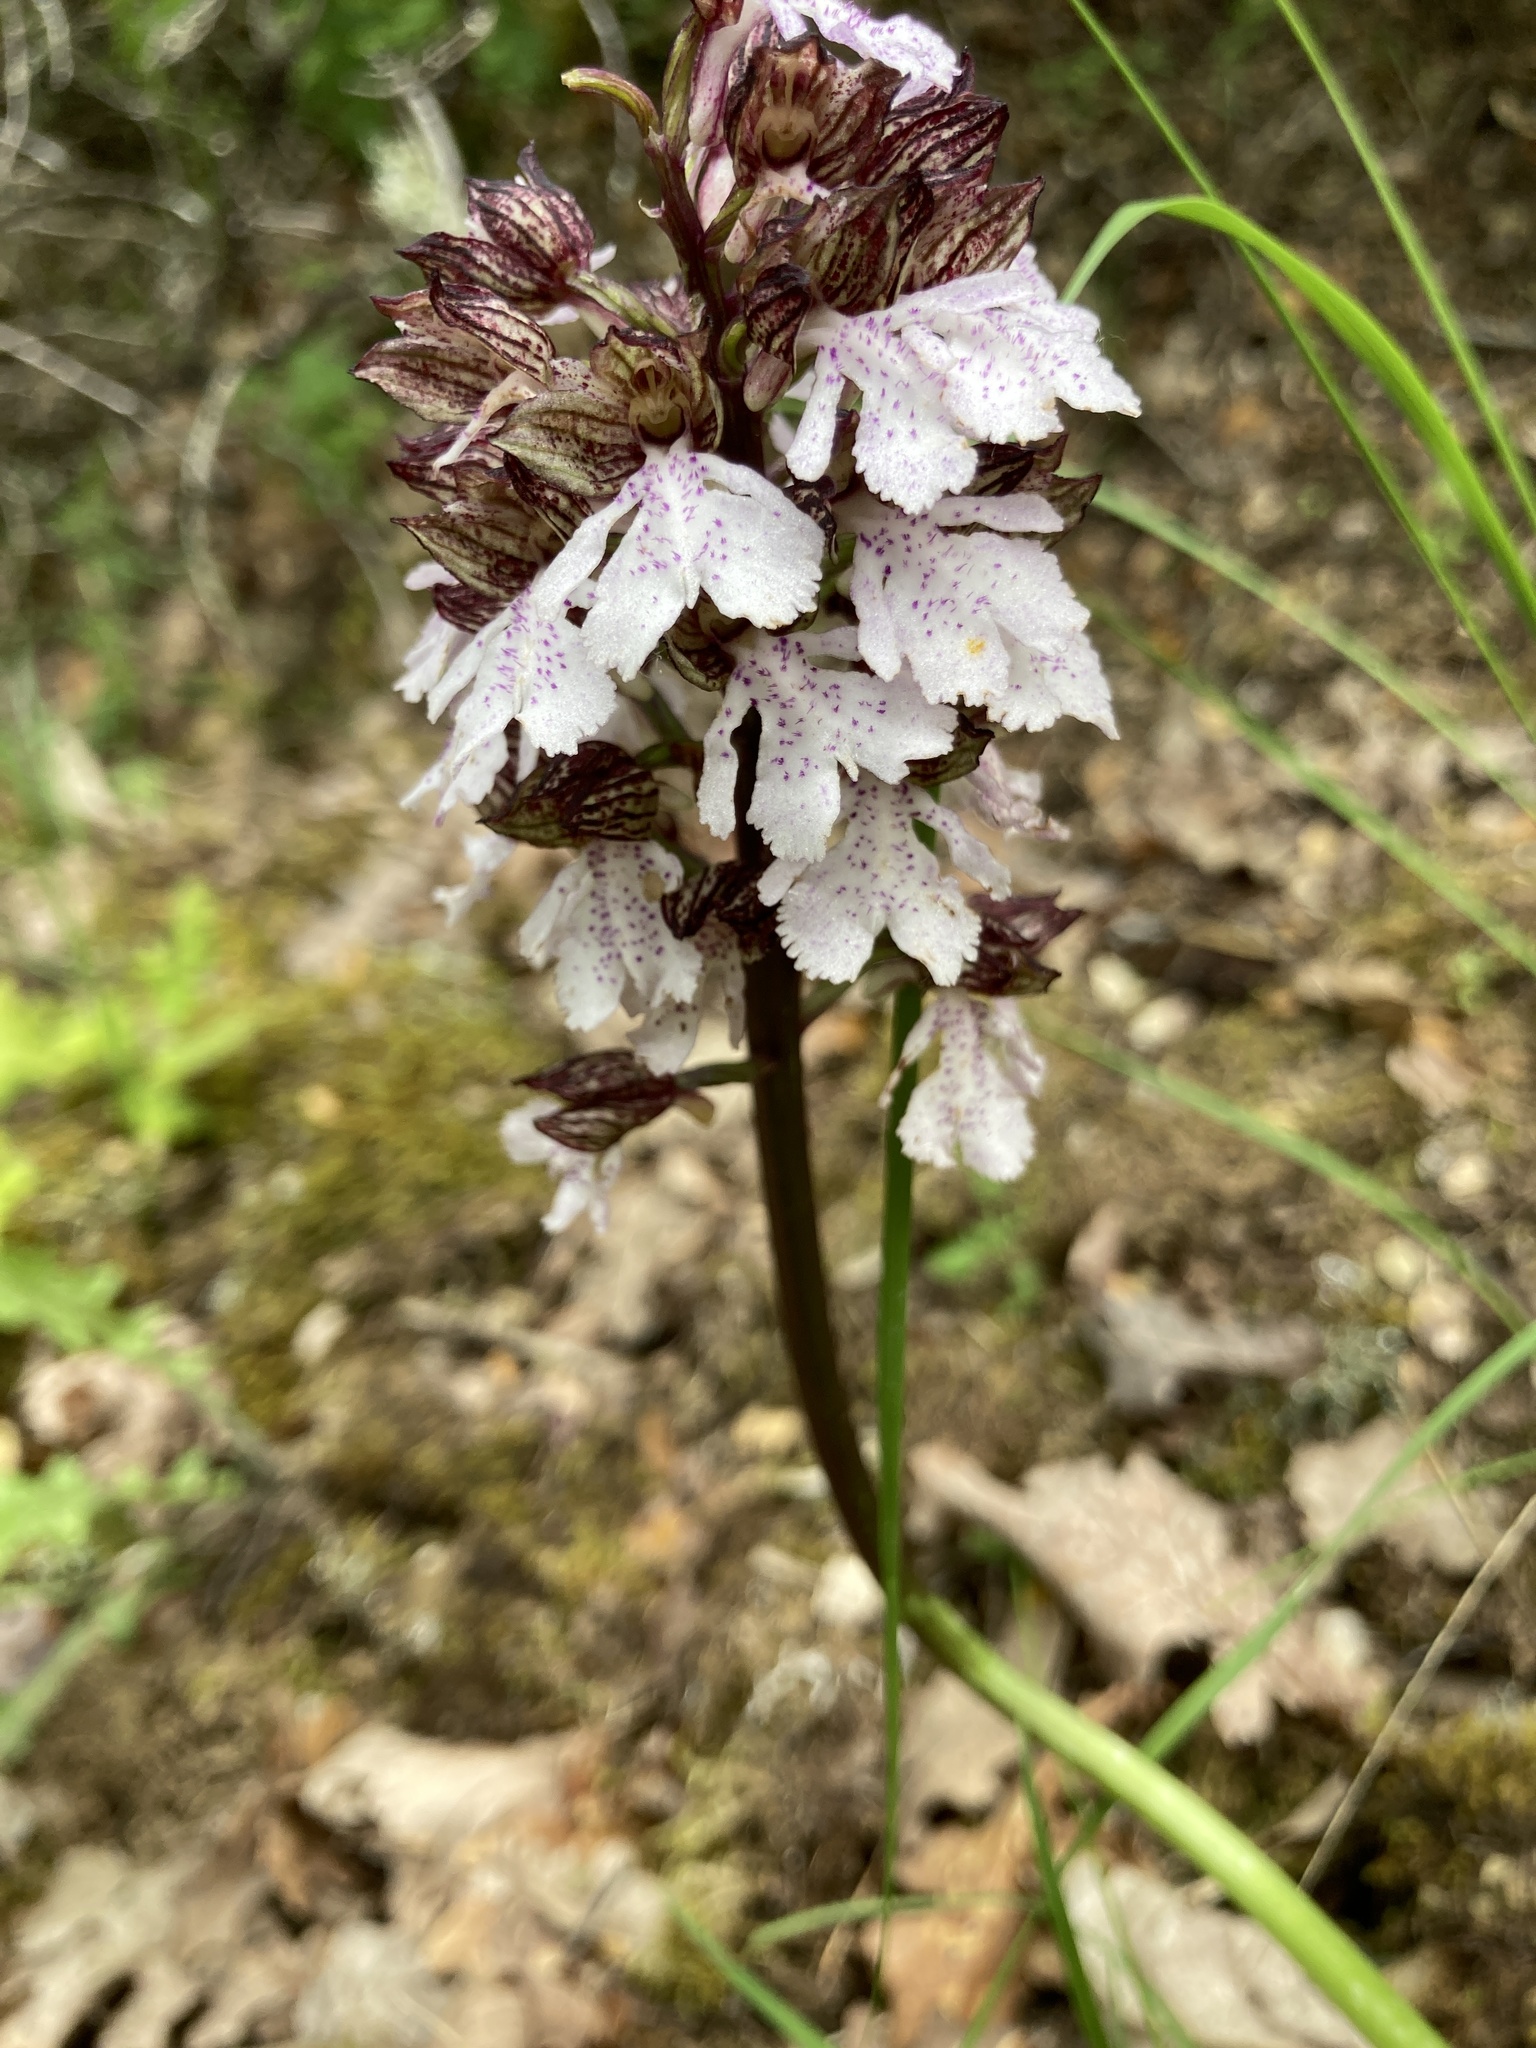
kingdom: Plantae
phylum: Tracheophyta
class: Liliopsida
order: Asparagales
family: Orchidaceae
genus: Orchis
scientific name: Orchis purpurea
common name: Lady orchid
